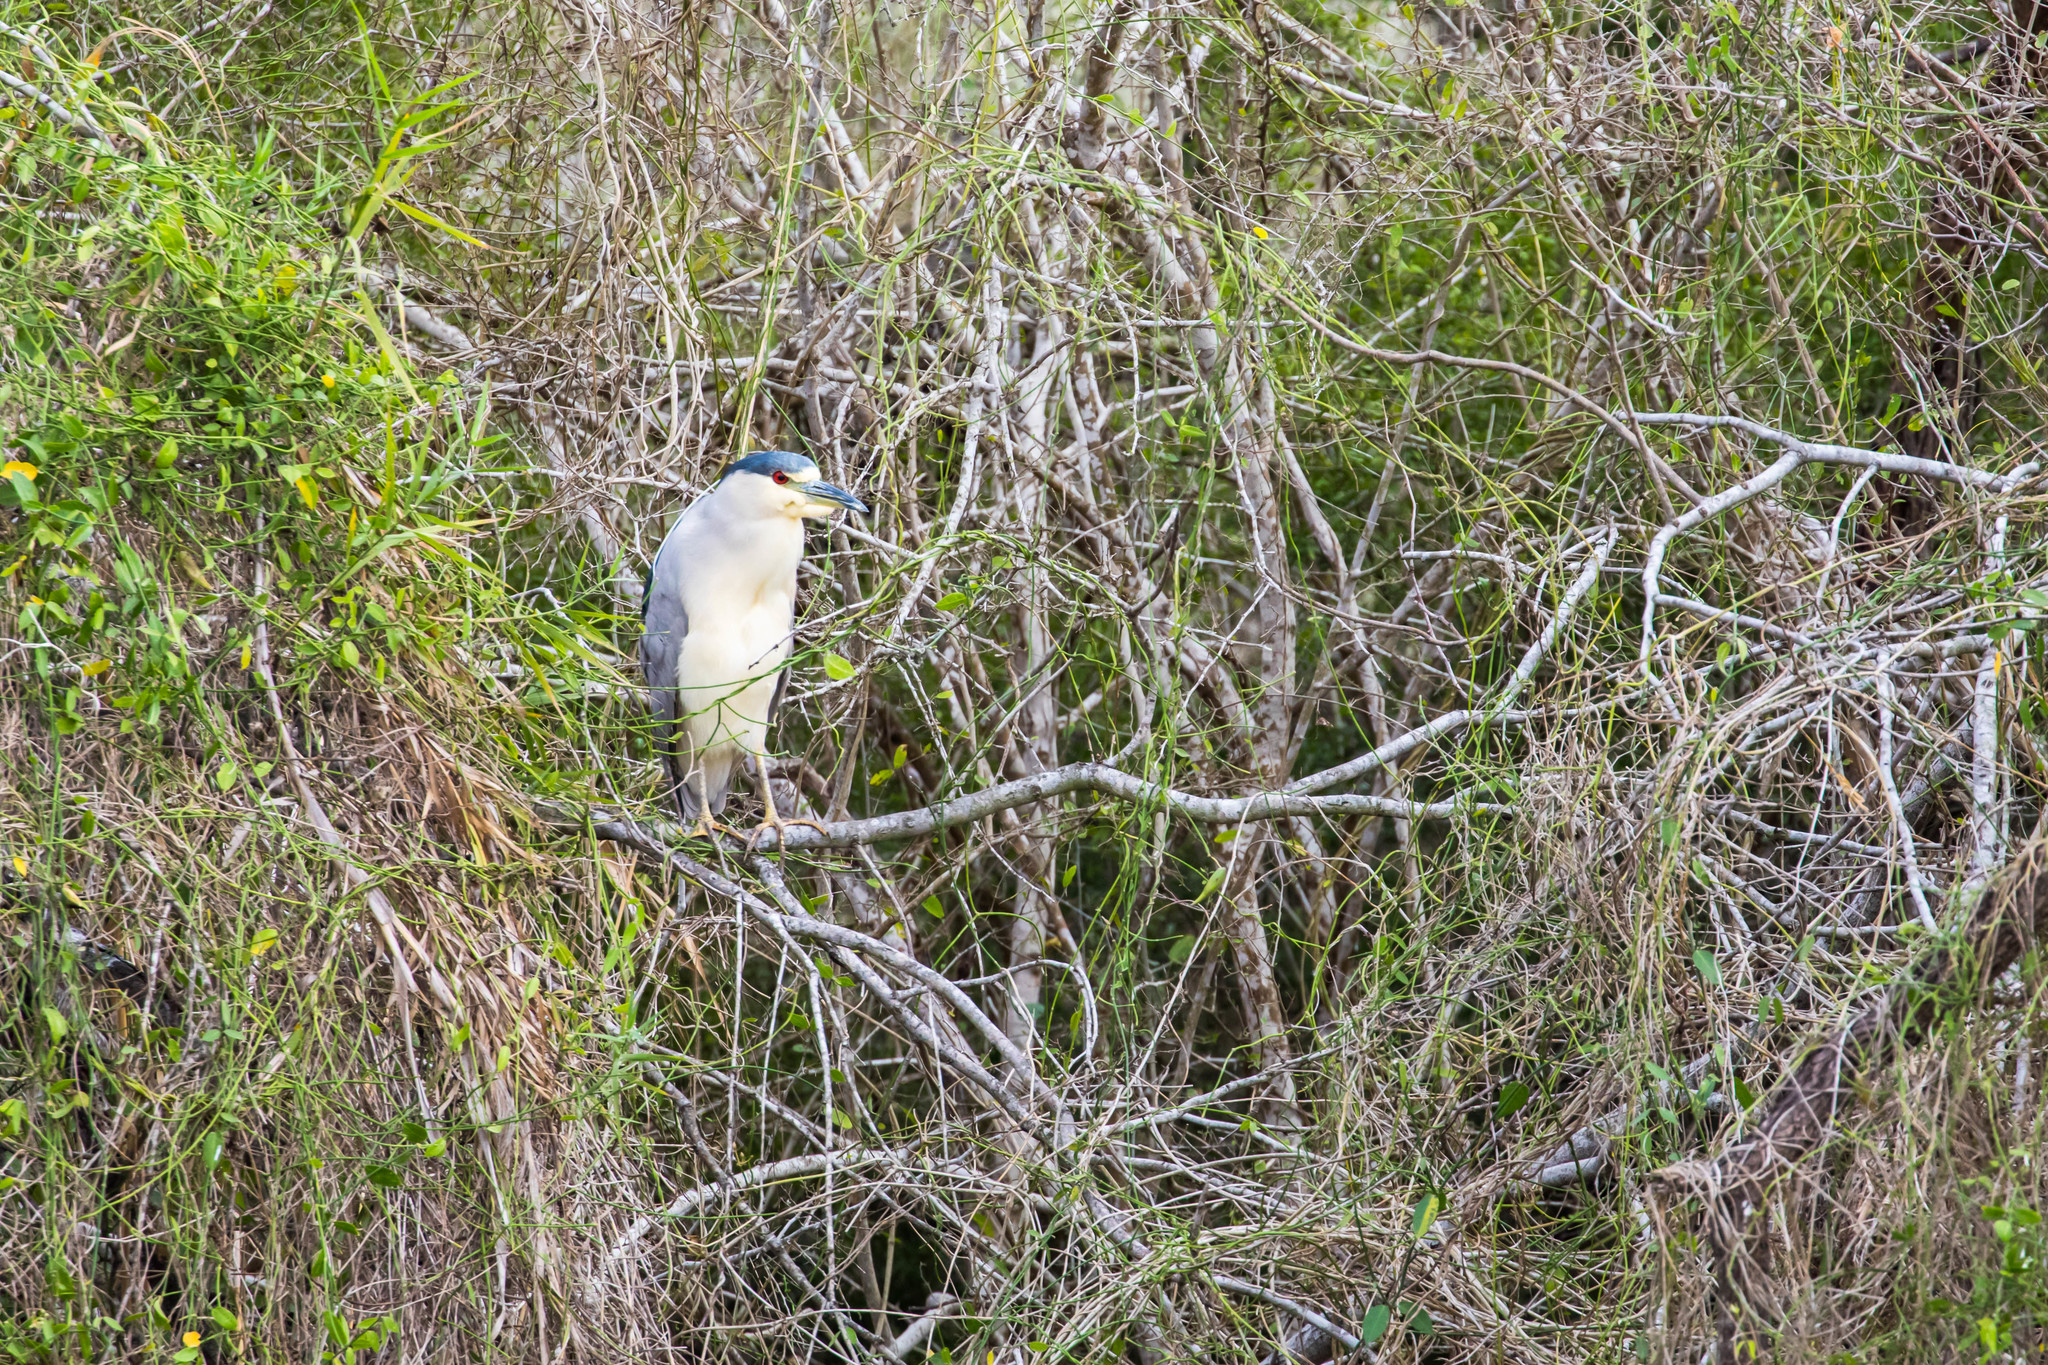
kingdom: Animalia
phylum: Chordata
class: Aves
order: Pelecaniformes
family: Ardeidae
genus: Nycticorax
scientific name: Nycticorax nycticorax
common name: Black-crowned night heron
